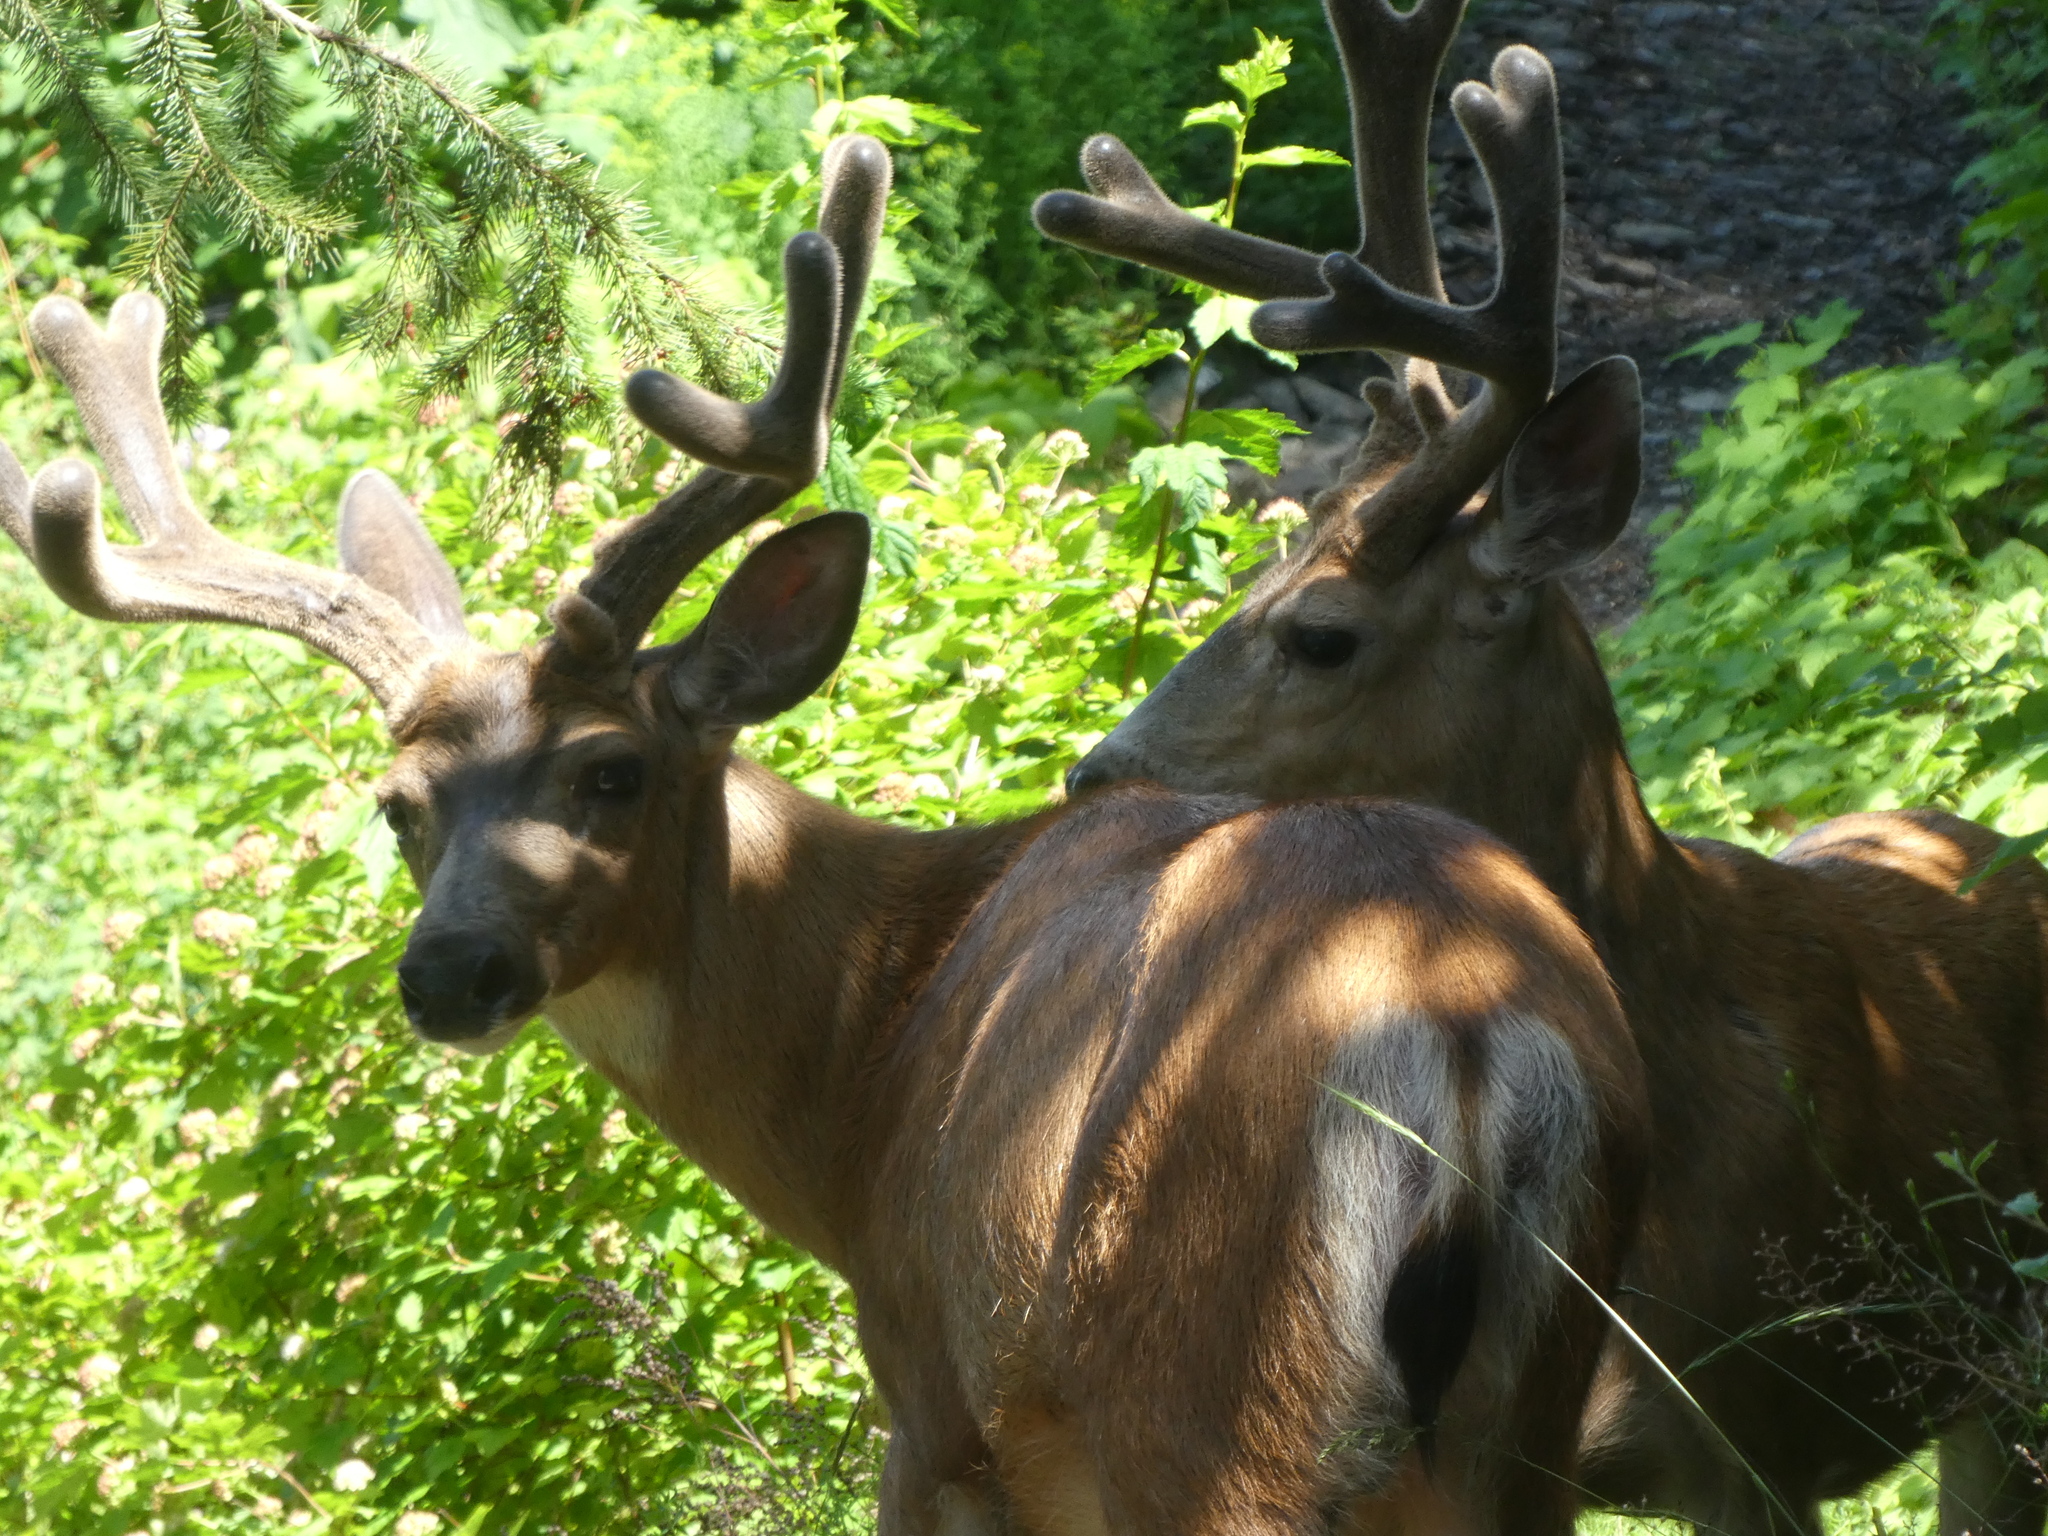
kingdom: Animalia
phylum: Chordata
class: Mammalia
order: Artiodactyla
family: Cervidae
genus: Odocoileus
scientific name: Odocoileus hemionus
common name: Mule deer
